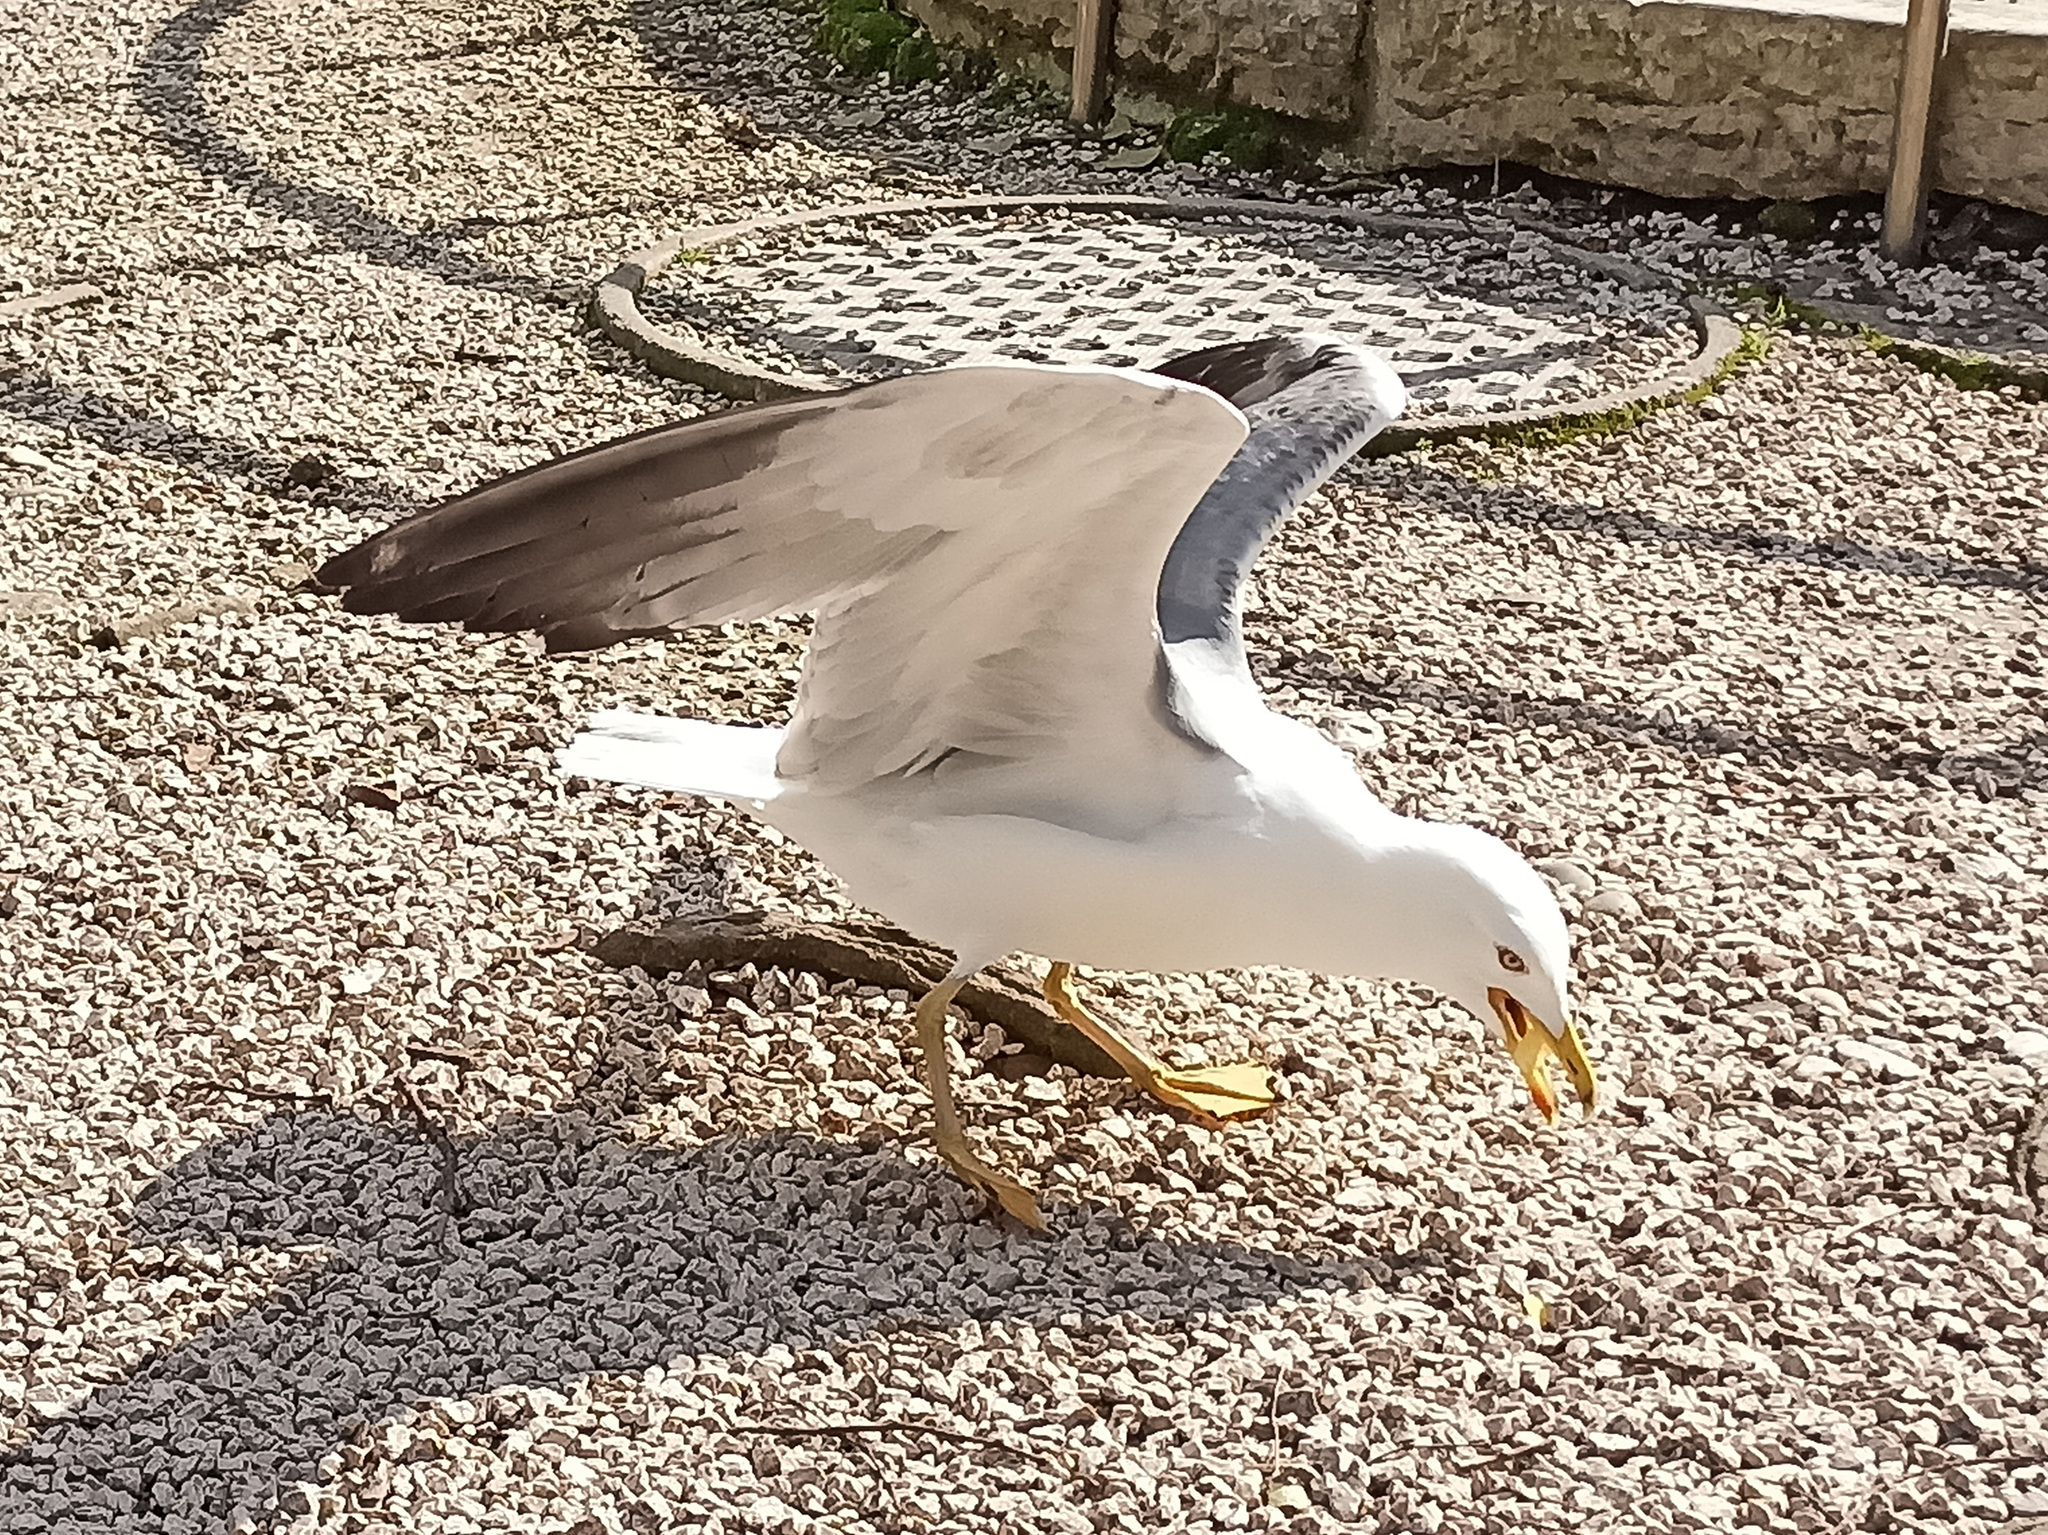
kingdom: Animalia
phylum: Chordata
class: Aves
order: Charadriiformes
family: Laridae
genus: Larus
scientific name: Larus michahellis
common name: Yellow-legged gull
